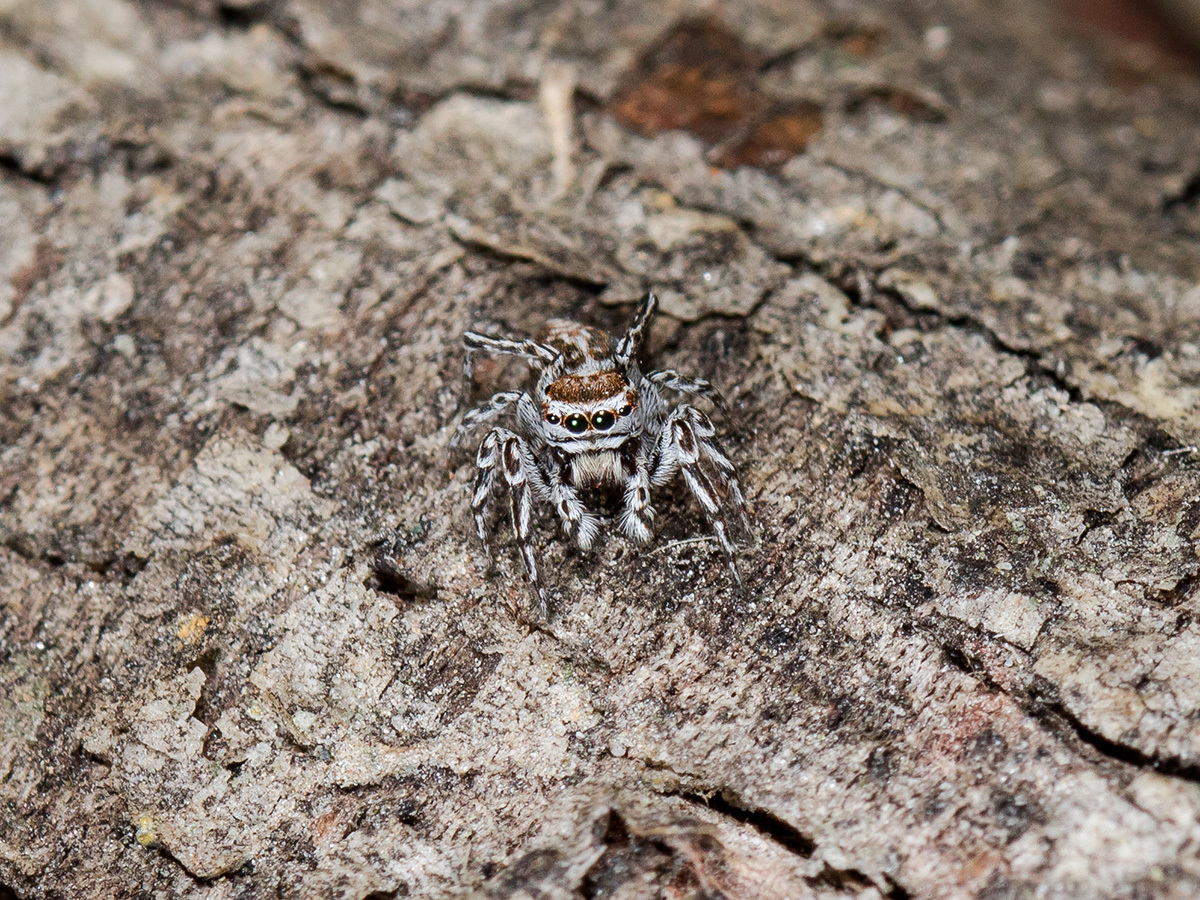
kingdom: Animalia
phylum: Arthropoda
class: Arachnida
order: Araneae
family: Salticidae
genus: Attulus
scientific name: Attulus nenilini
